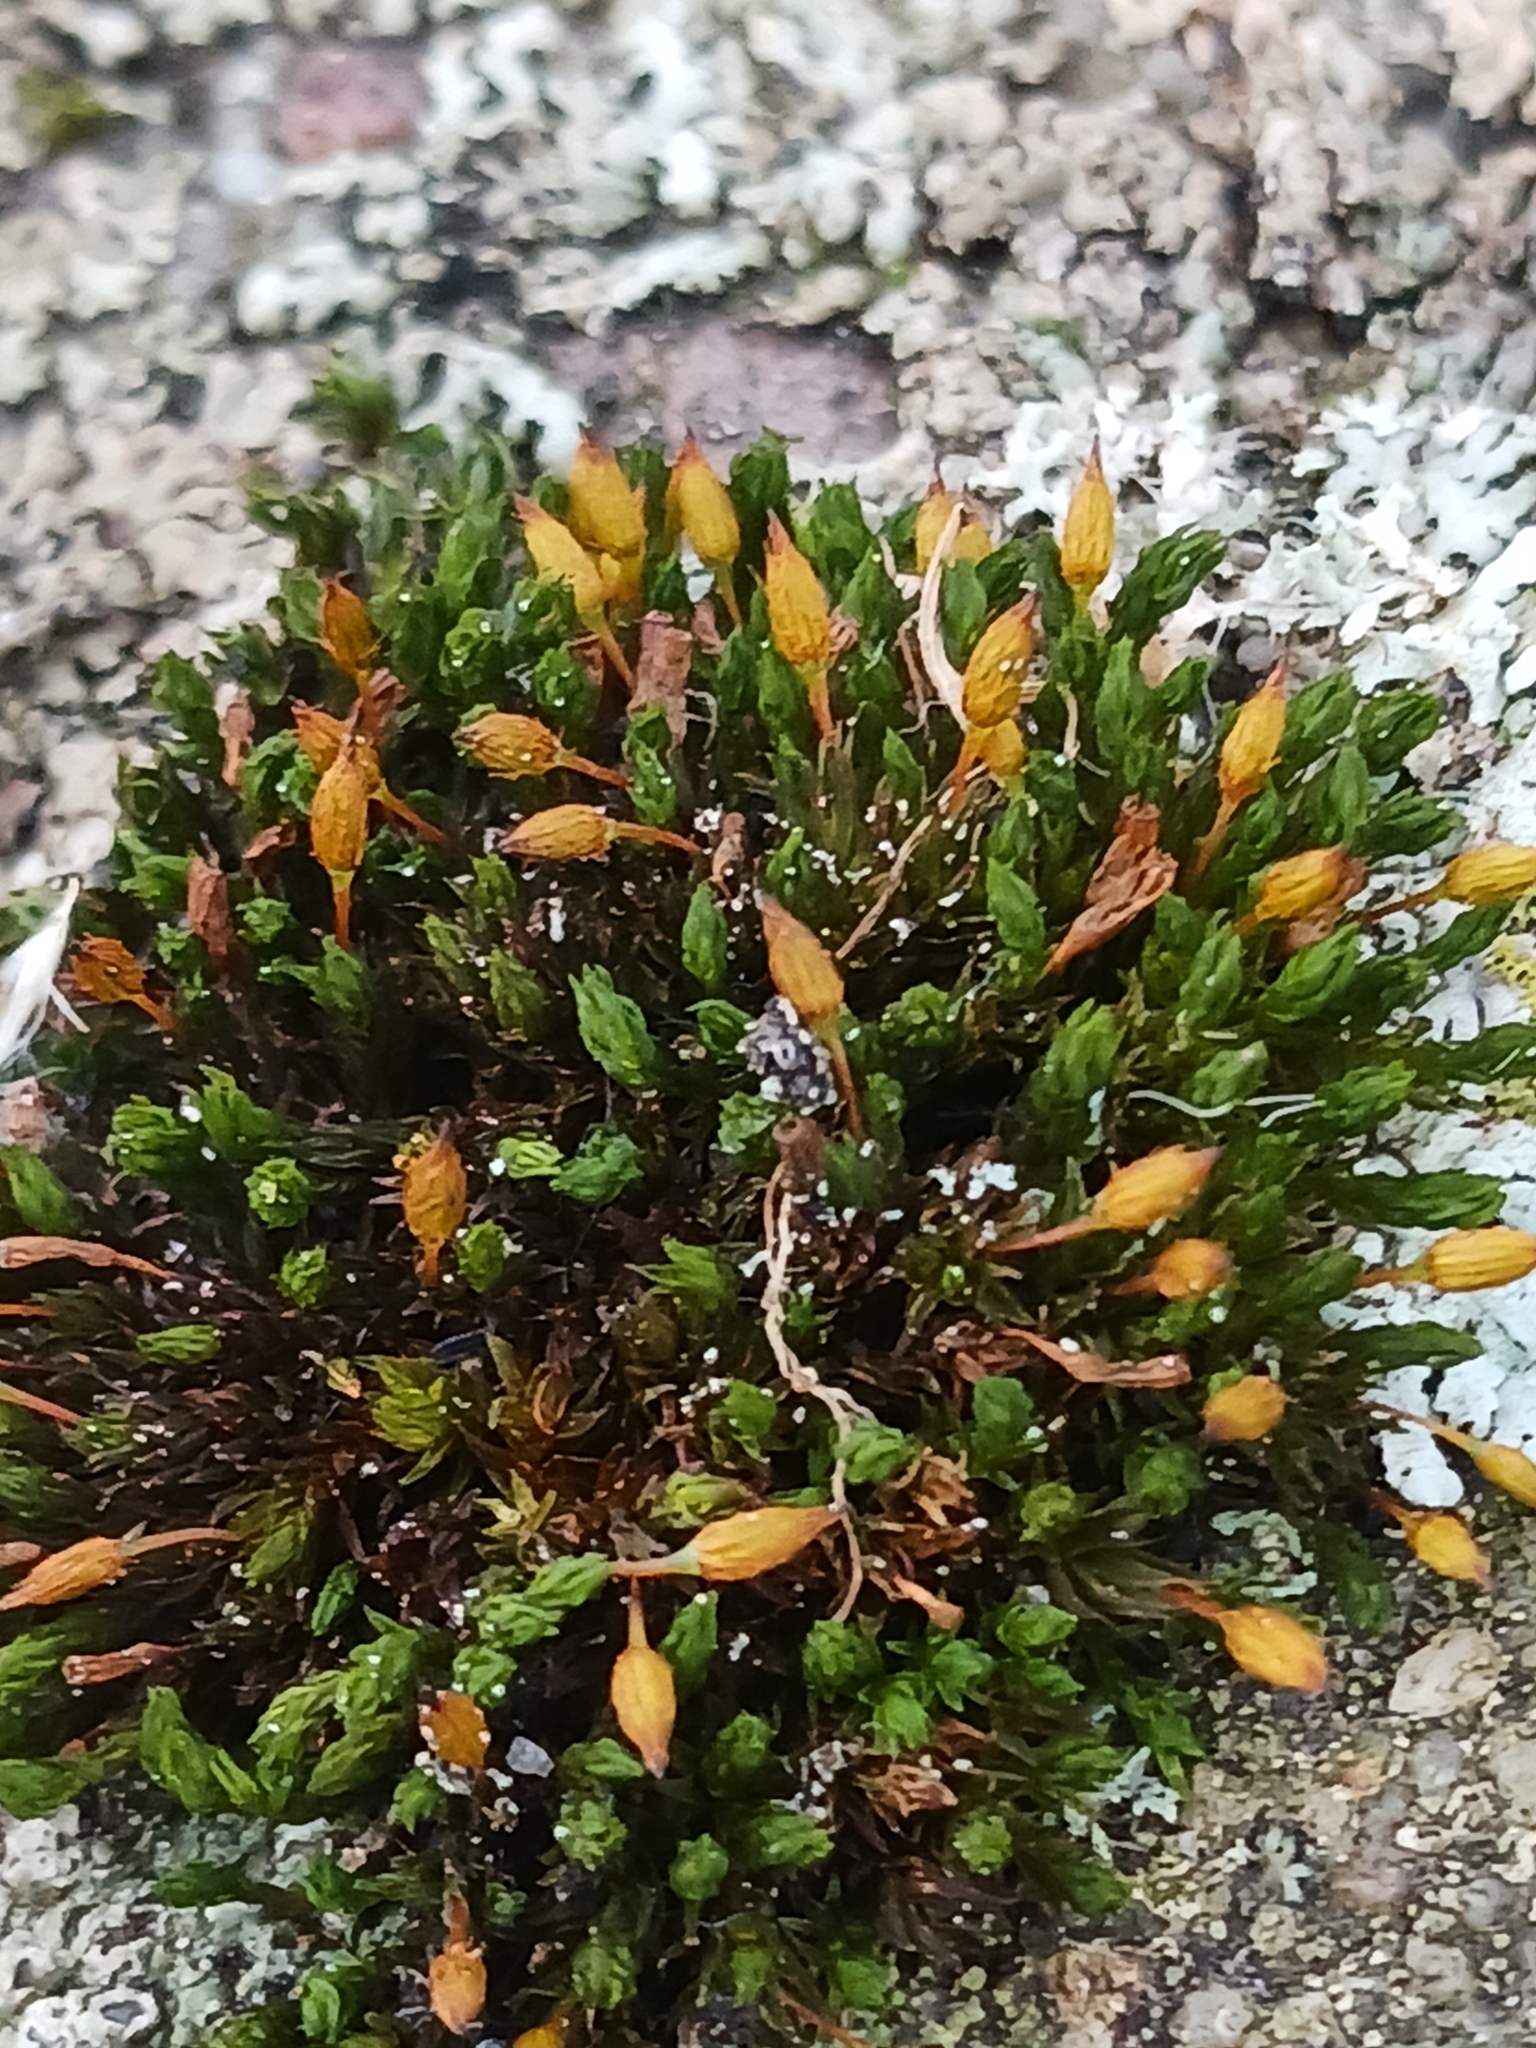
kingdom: Plantae
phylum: Bryophyta
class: Bryopsida
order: Orthotrichales
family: Orthotrichaceae
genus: Orthotrichum
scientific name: Orthotrichum anomalum
